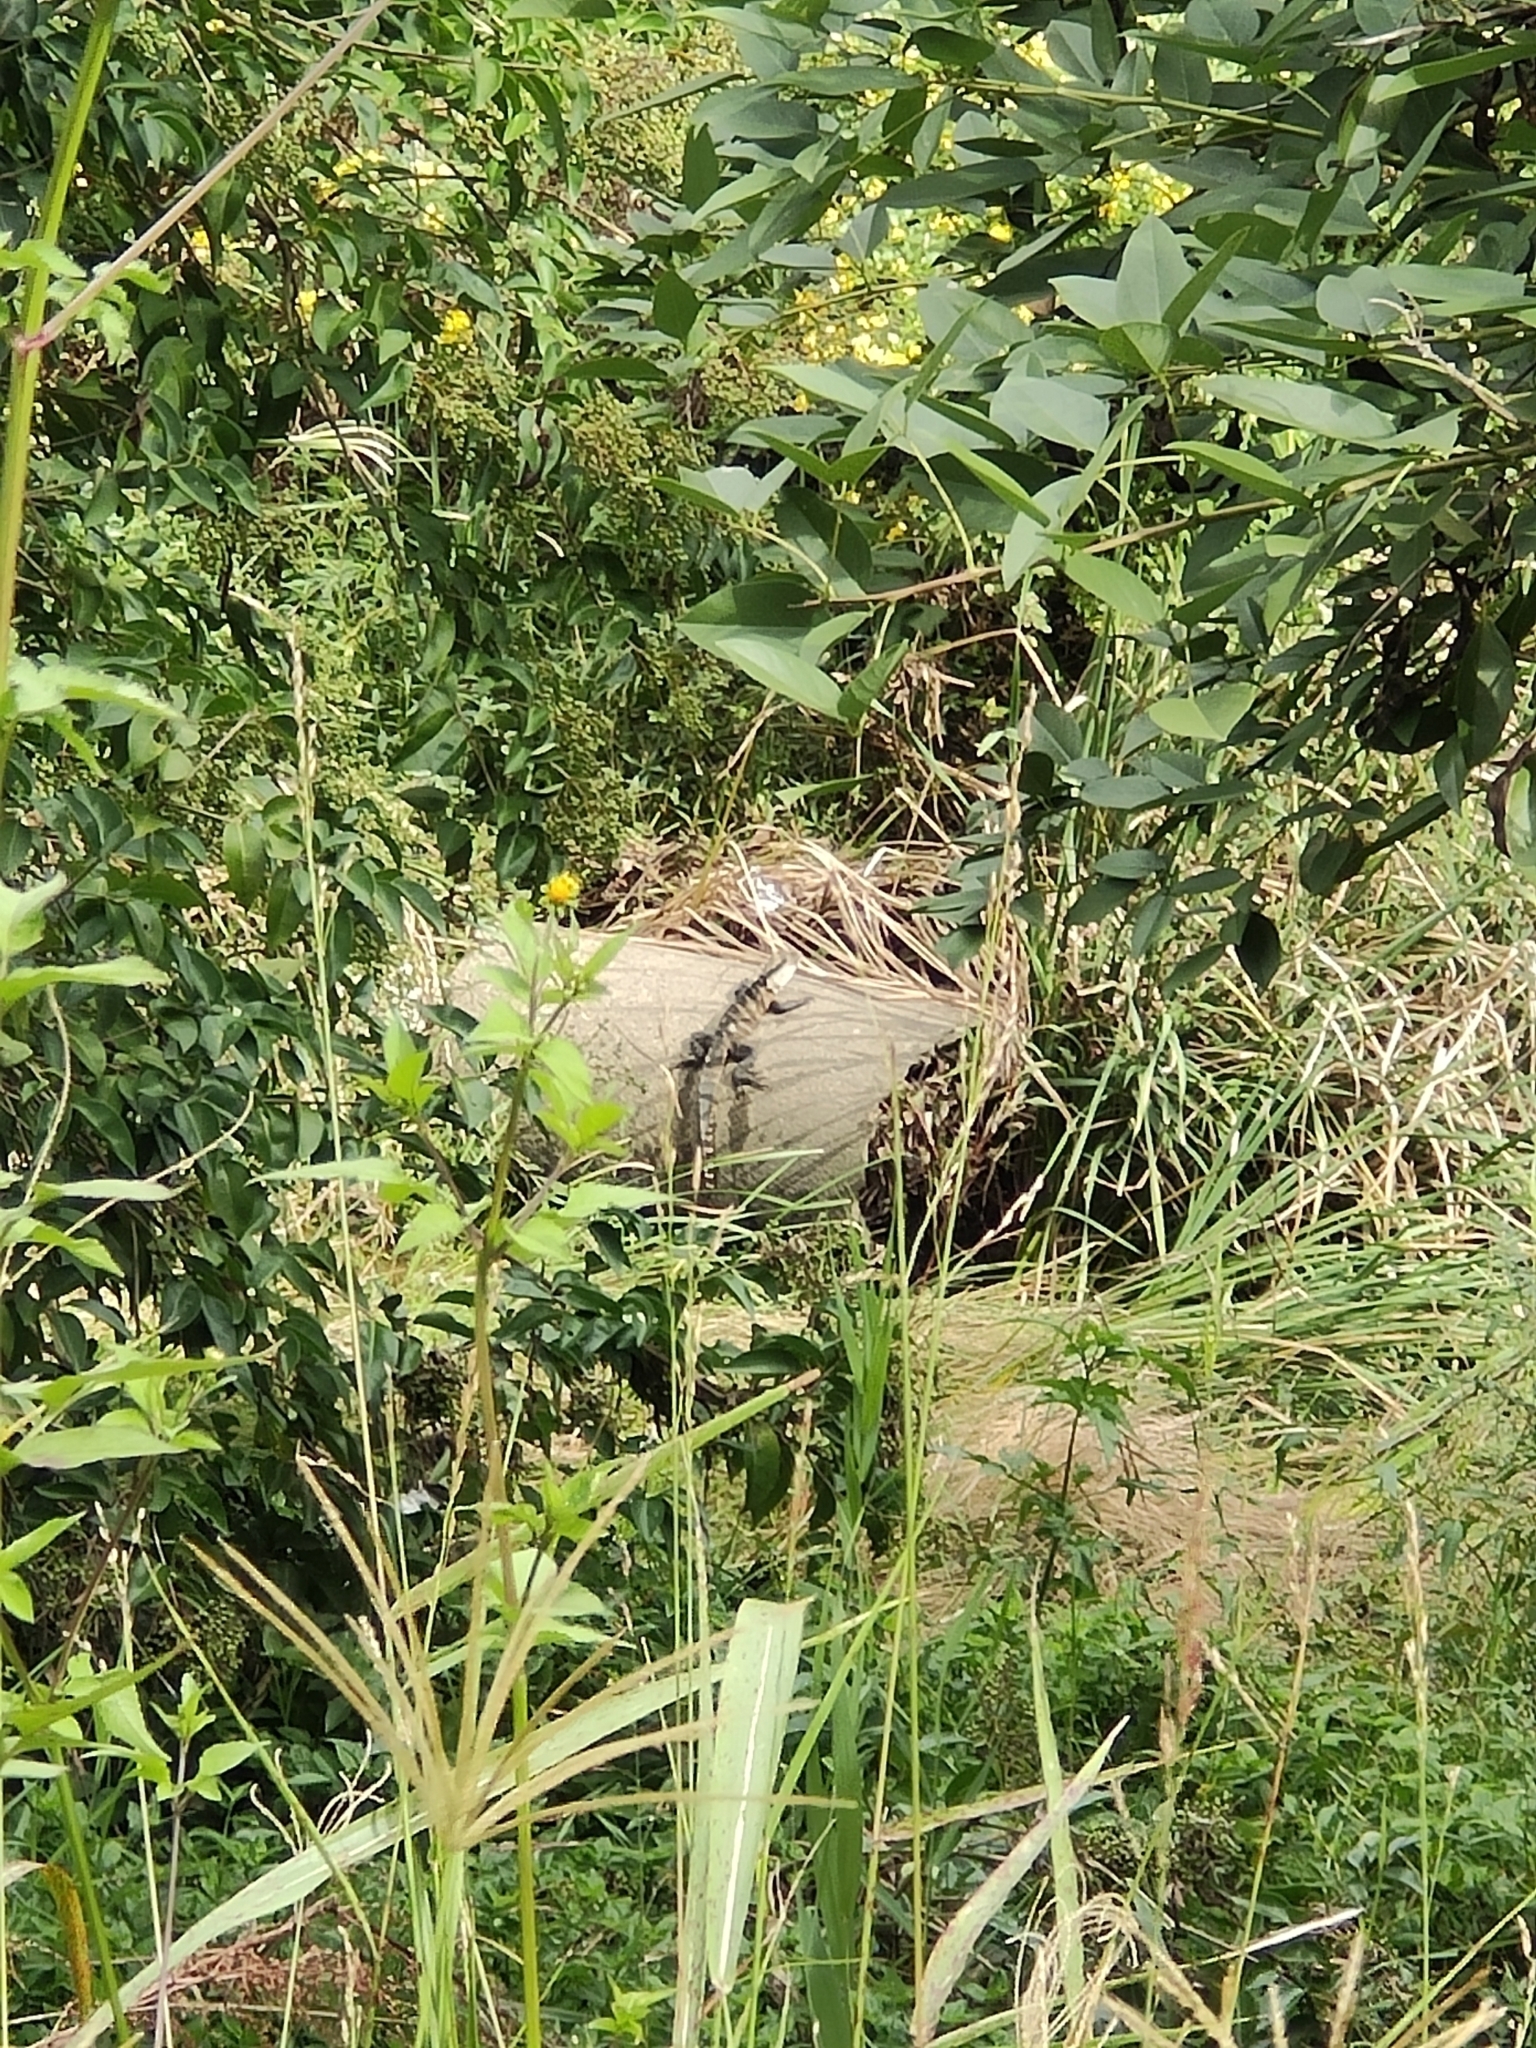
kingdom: Animalia
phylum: Chordata
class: Squamata
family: Agamidae
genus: Intellagama
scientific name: Intellagama lesueurii
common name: Eastern water dragon
